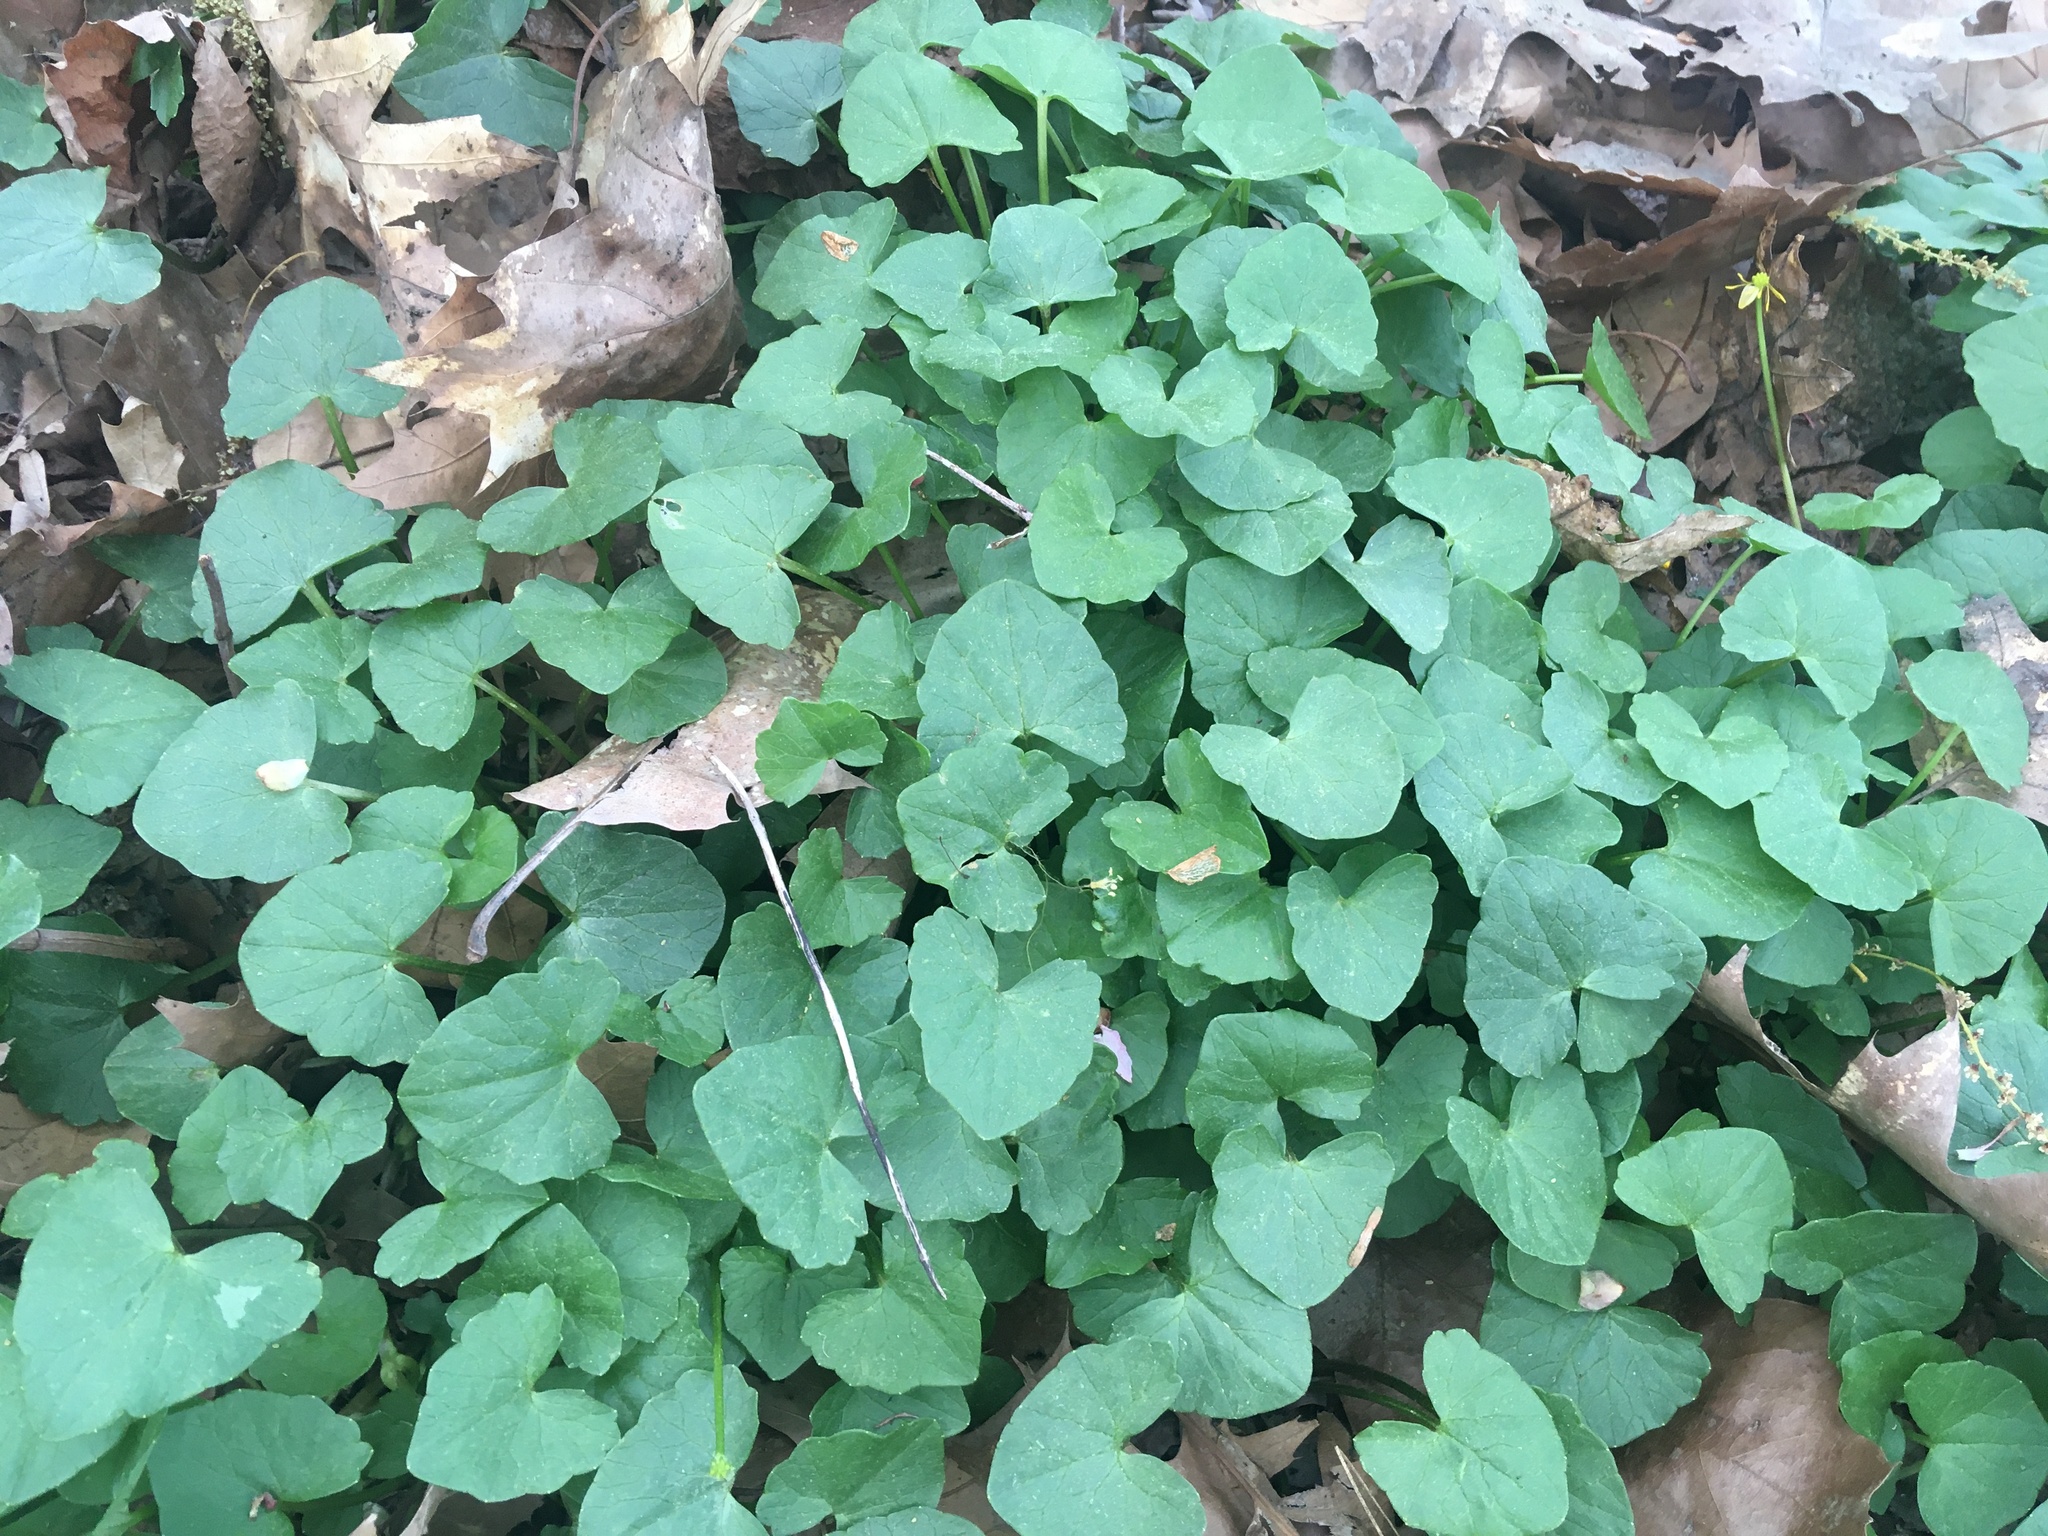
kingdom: Plantae
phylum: Tracheophyta
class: Magnoliopsida
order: Ranunculales
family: Ranunculaceae
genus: Ficaria
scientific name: Ficaria verna
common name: Lesser celandine
